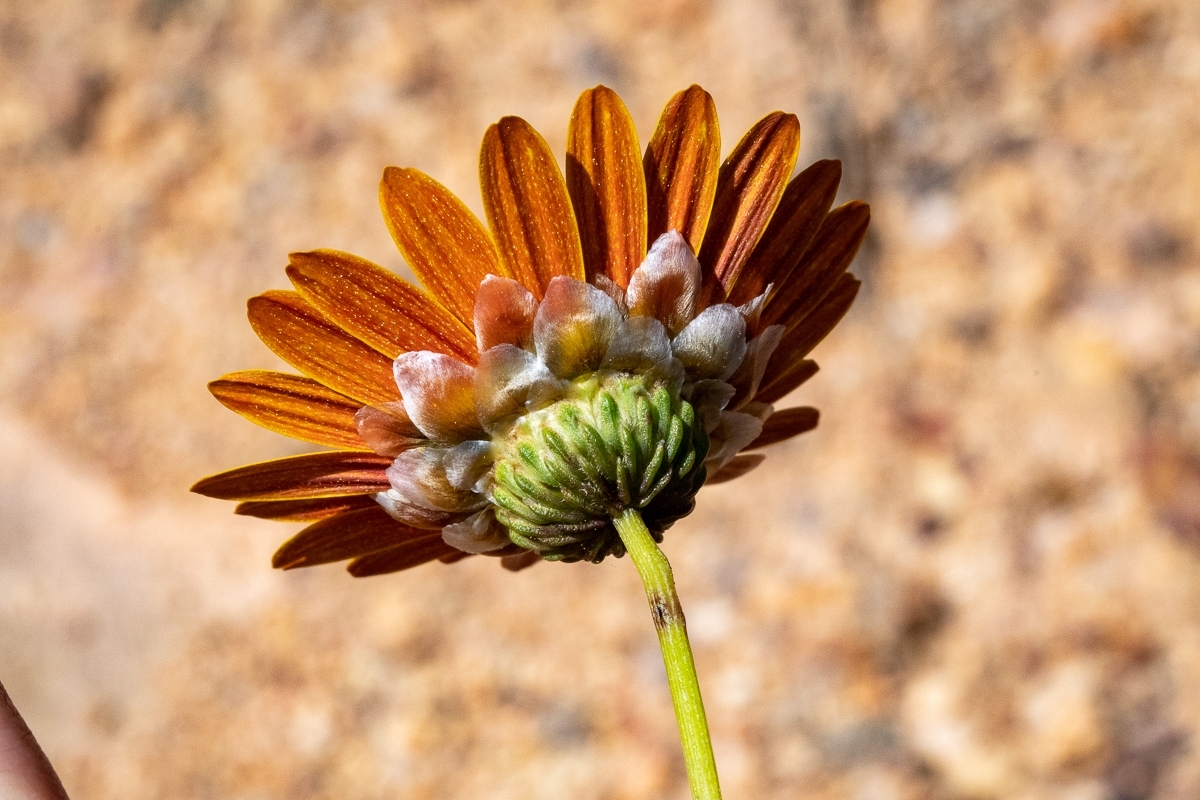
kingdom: Plantae
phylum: Tracheophyta
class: Magnoliopsida
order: Asterales
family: Asteraceae
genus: Ursinia
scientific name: Ursinia paleacea
